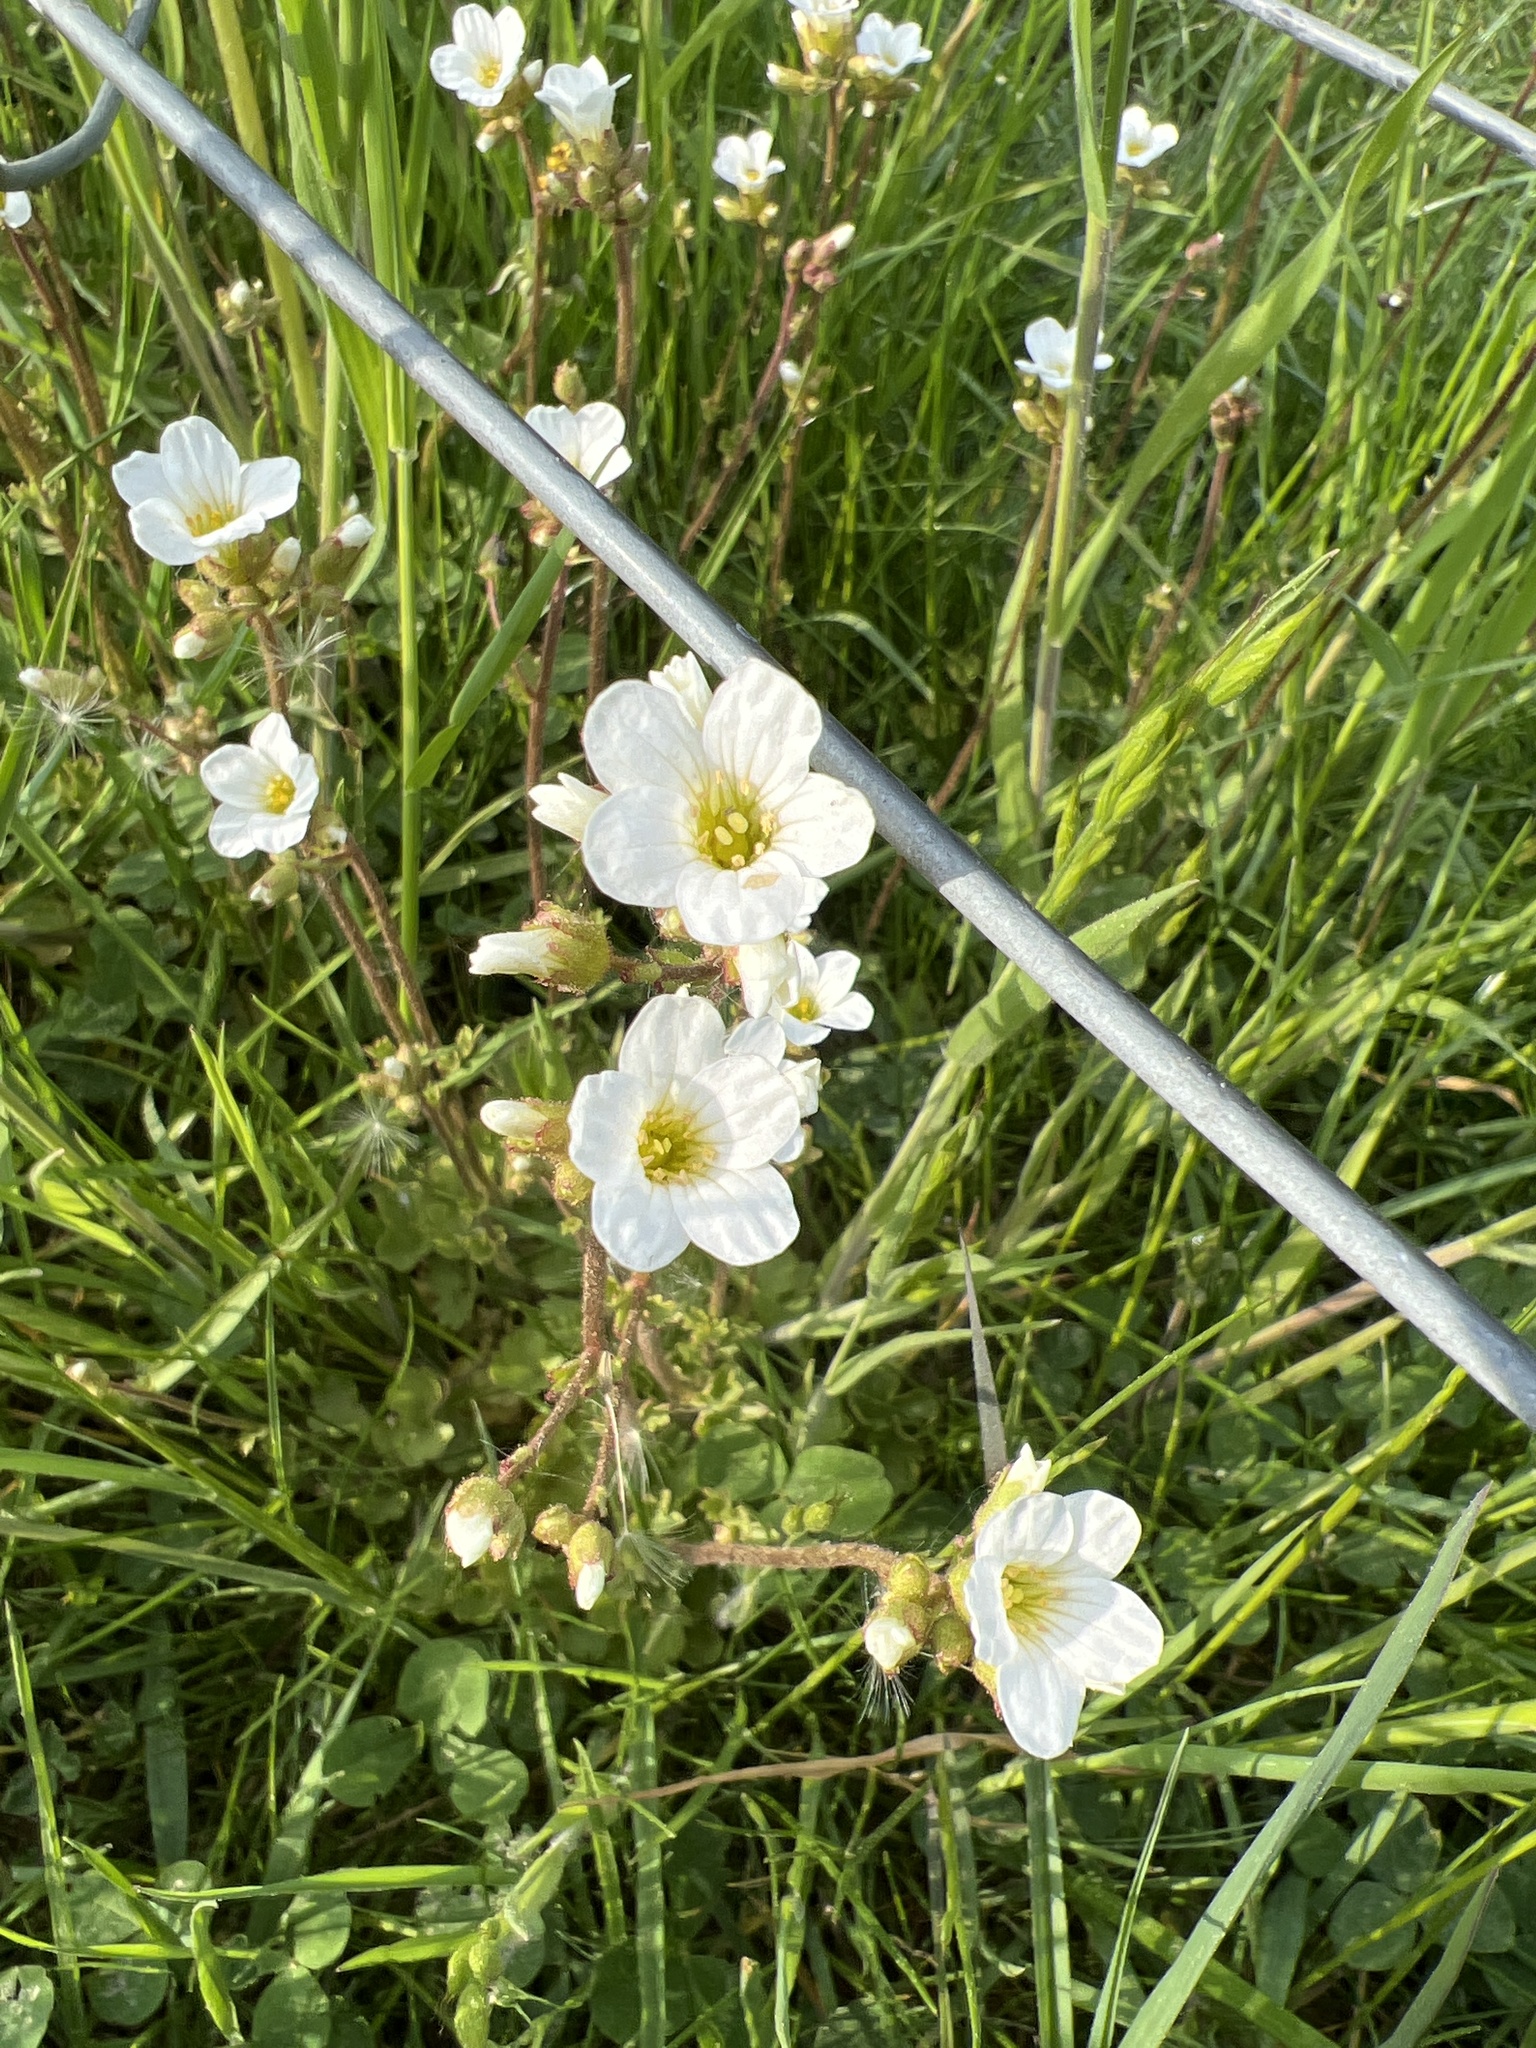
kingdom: Plantae
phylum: Tracheophyta
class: Magnoliopsida
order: Saxifragales
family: Saxifragaceae
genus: Saxifraga
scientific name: Saxifraga granulata
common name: Meadow saxifrage
